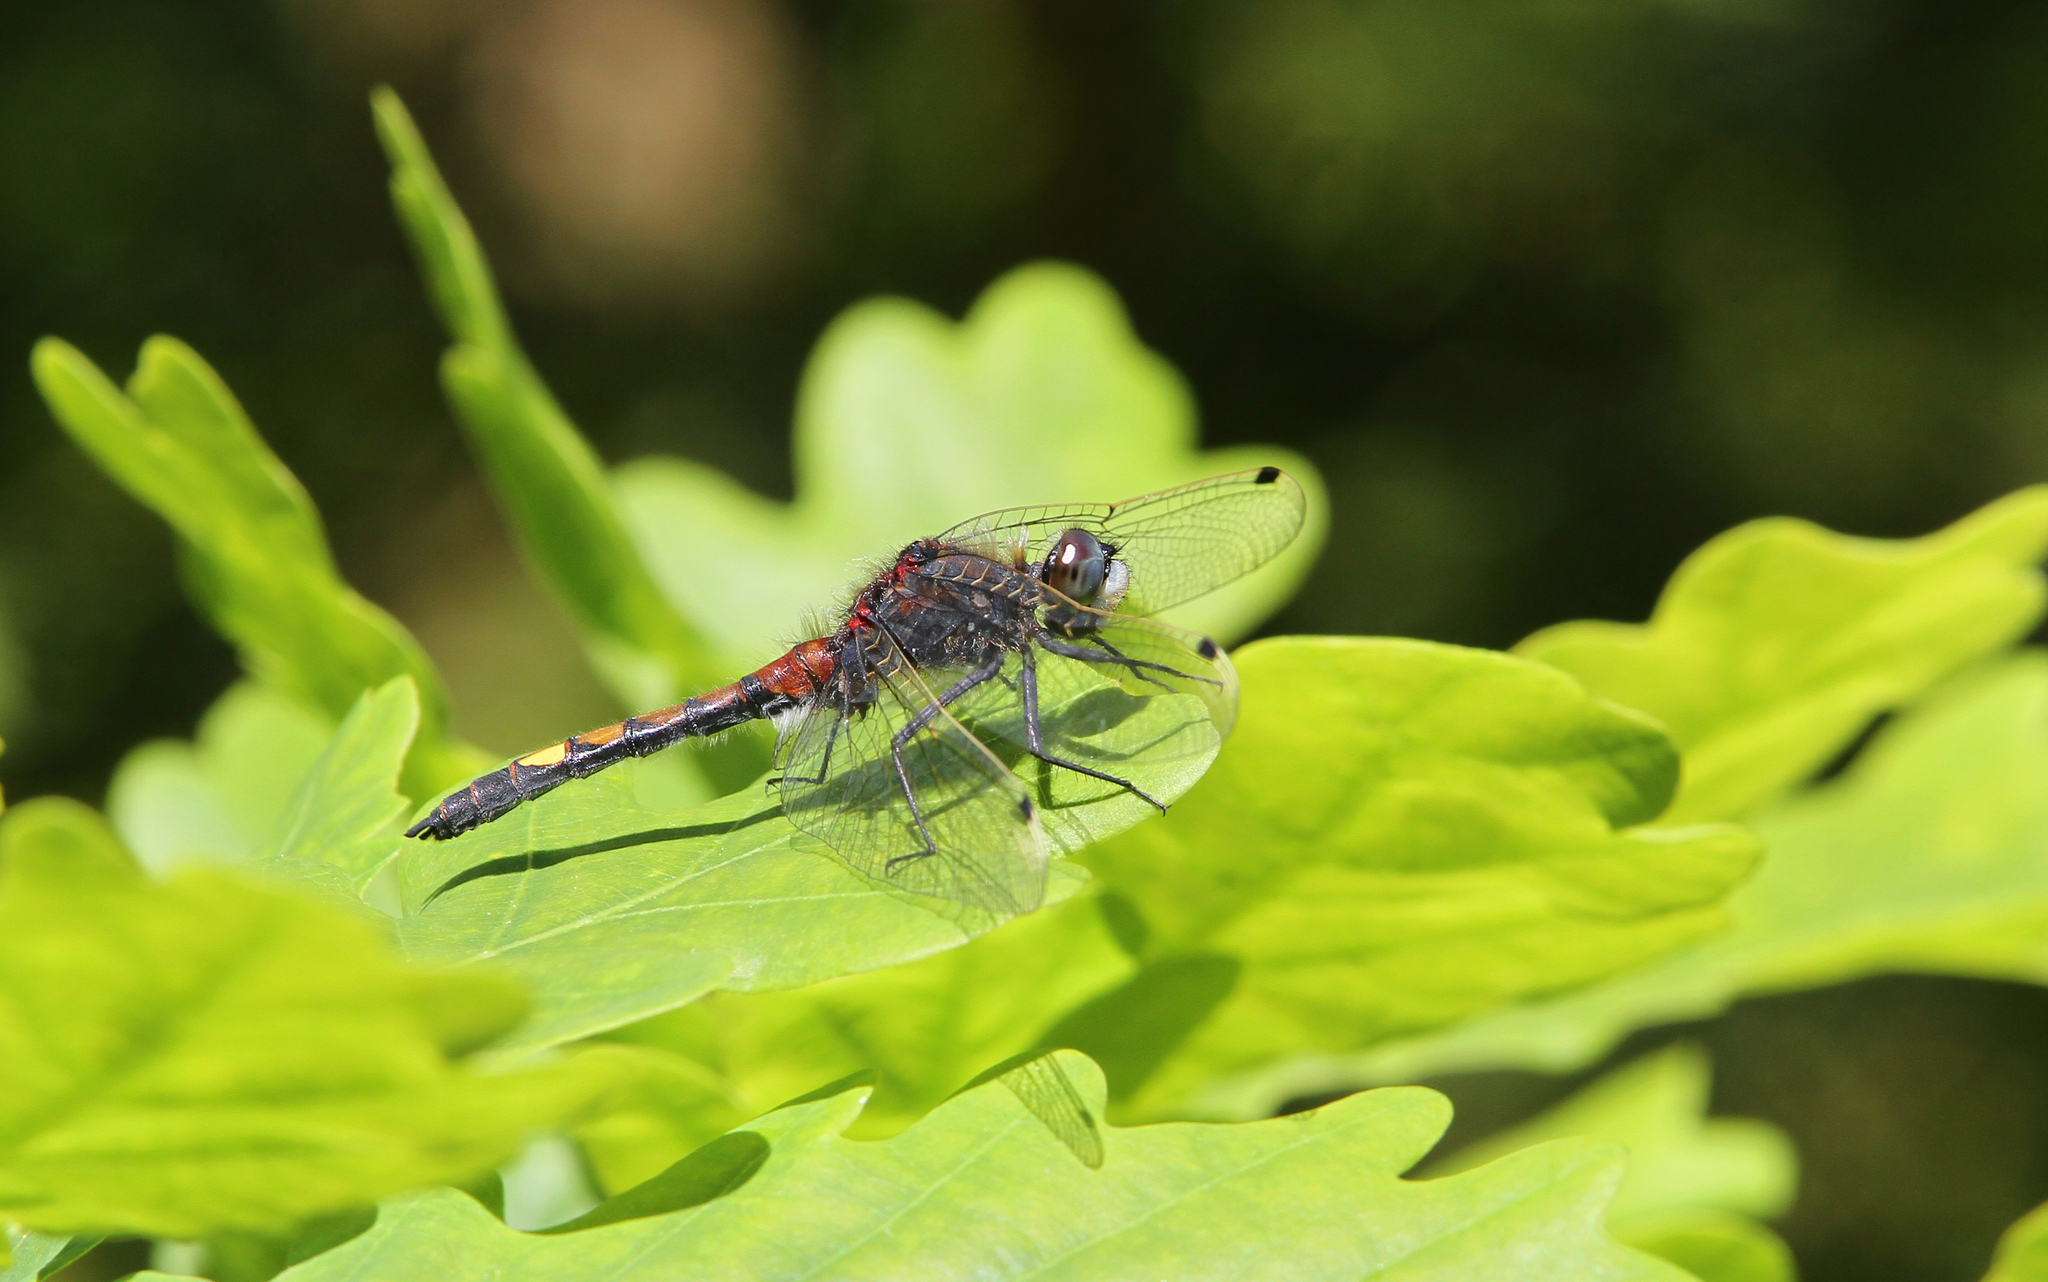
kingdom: Animalia
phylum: Arthropoda
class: Insecta
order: Odonata
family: Libellulidae
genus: Leucorrhinia
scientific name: Leucorrhinia pectoralis
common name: Yellow-spotted whiteface
